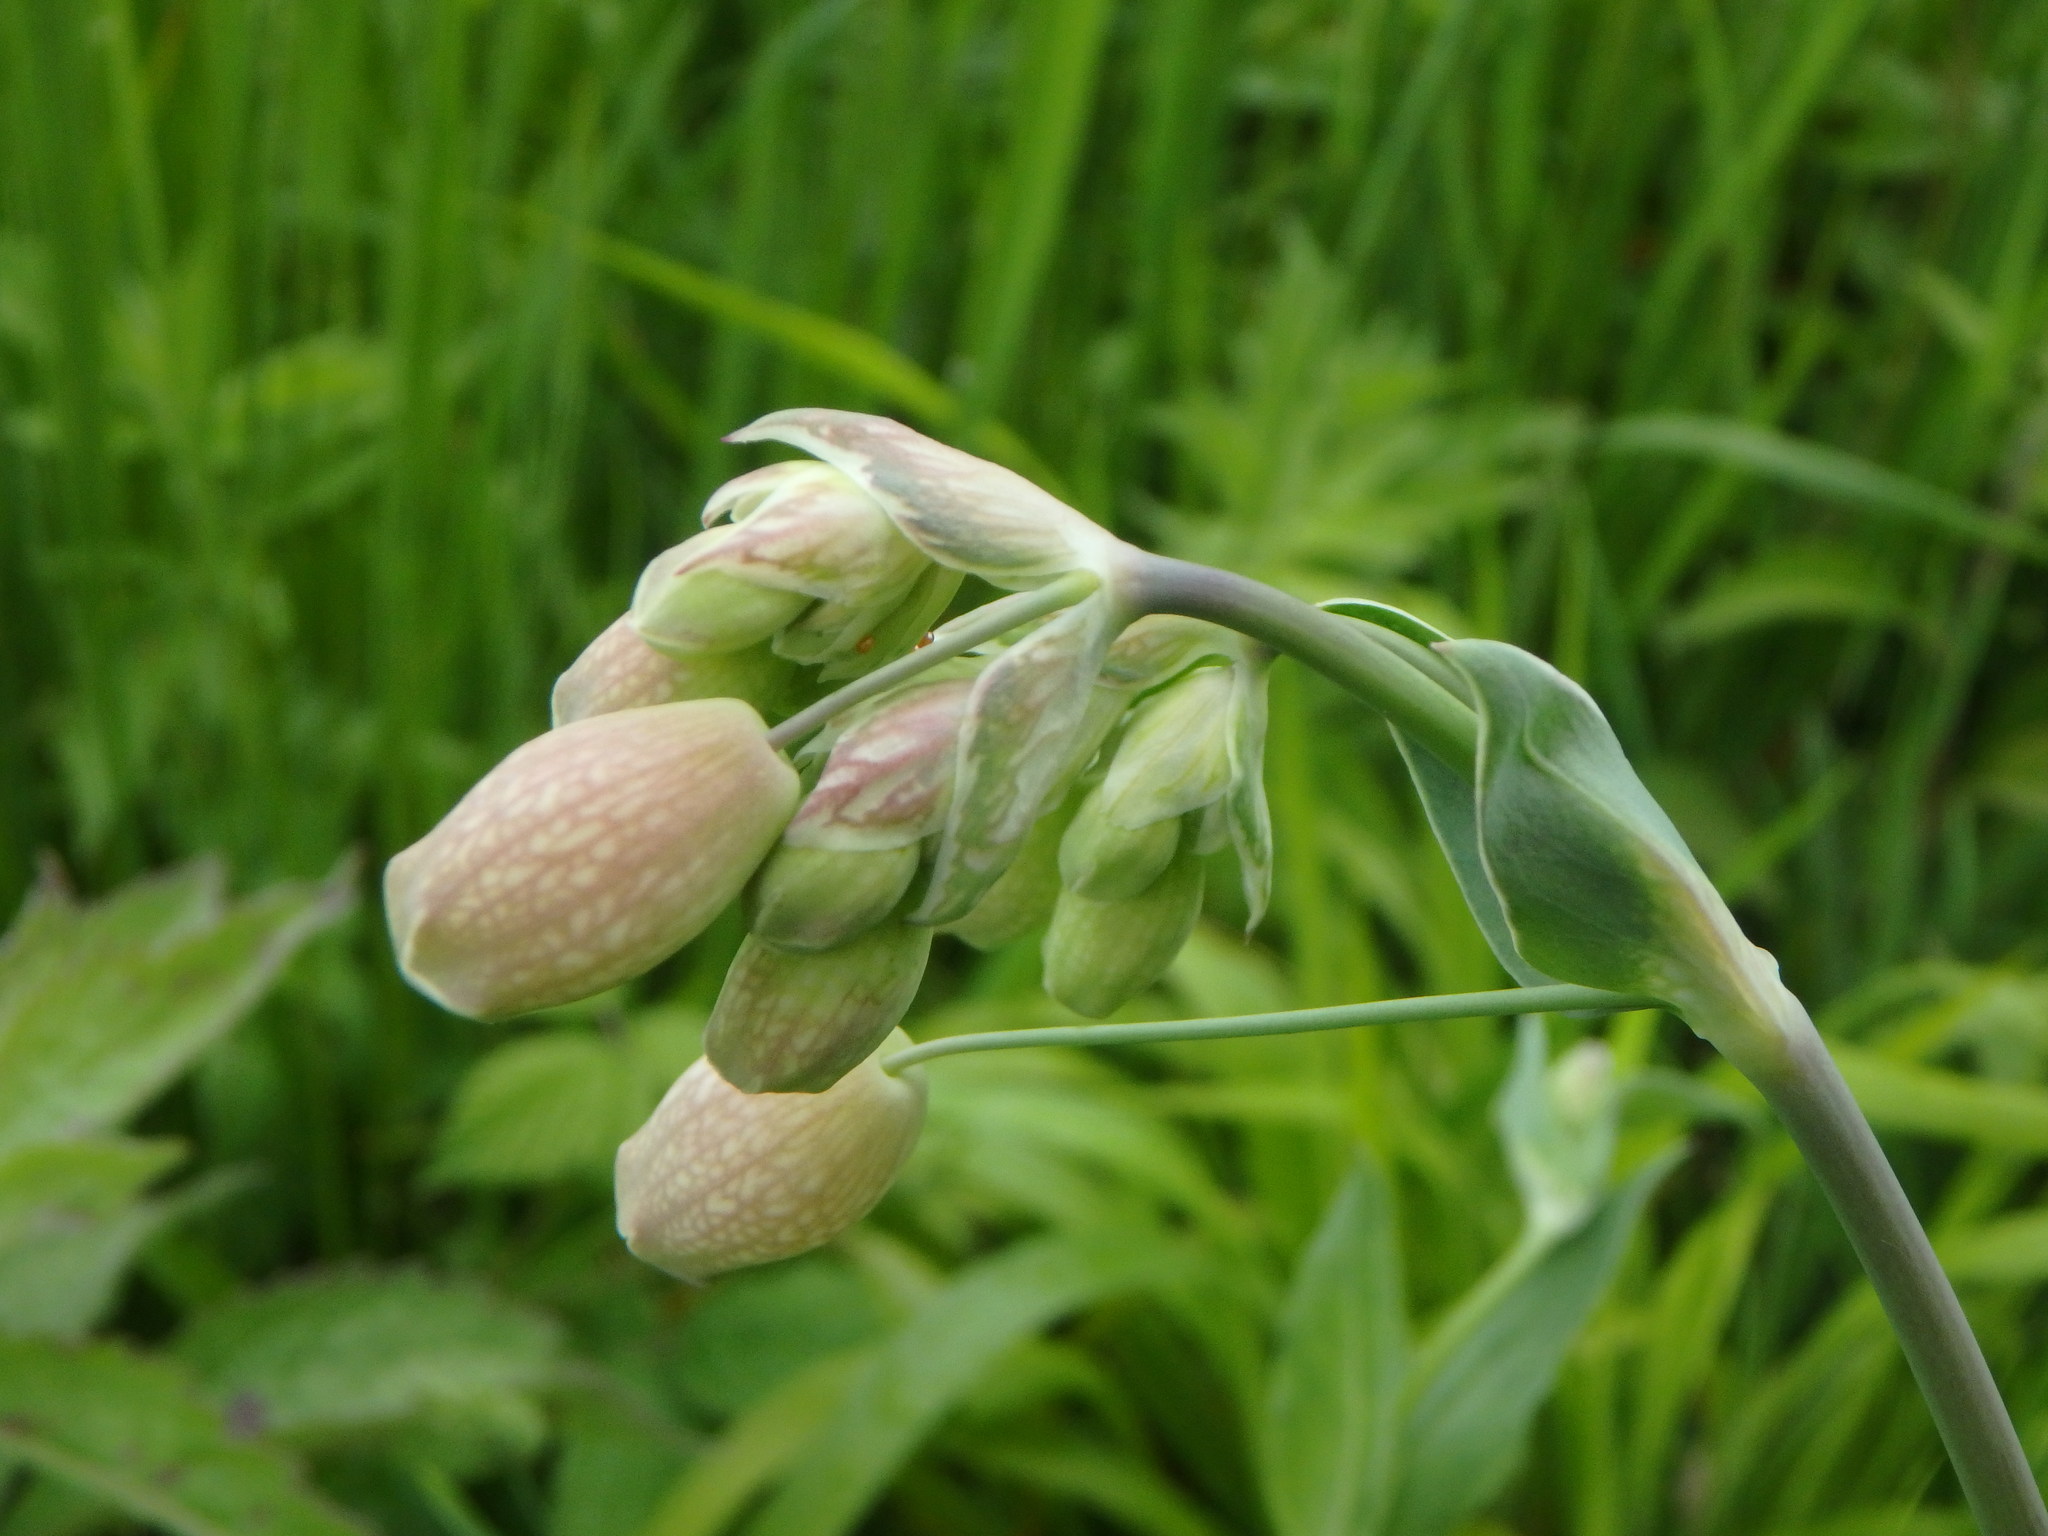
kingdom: Plantae
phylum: Tracheophyta
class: Magnoliopsida
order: Caryophyllales
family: Caryophyllaceae
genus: Silene
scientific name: Silene vulgaris
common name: Bladder campion
